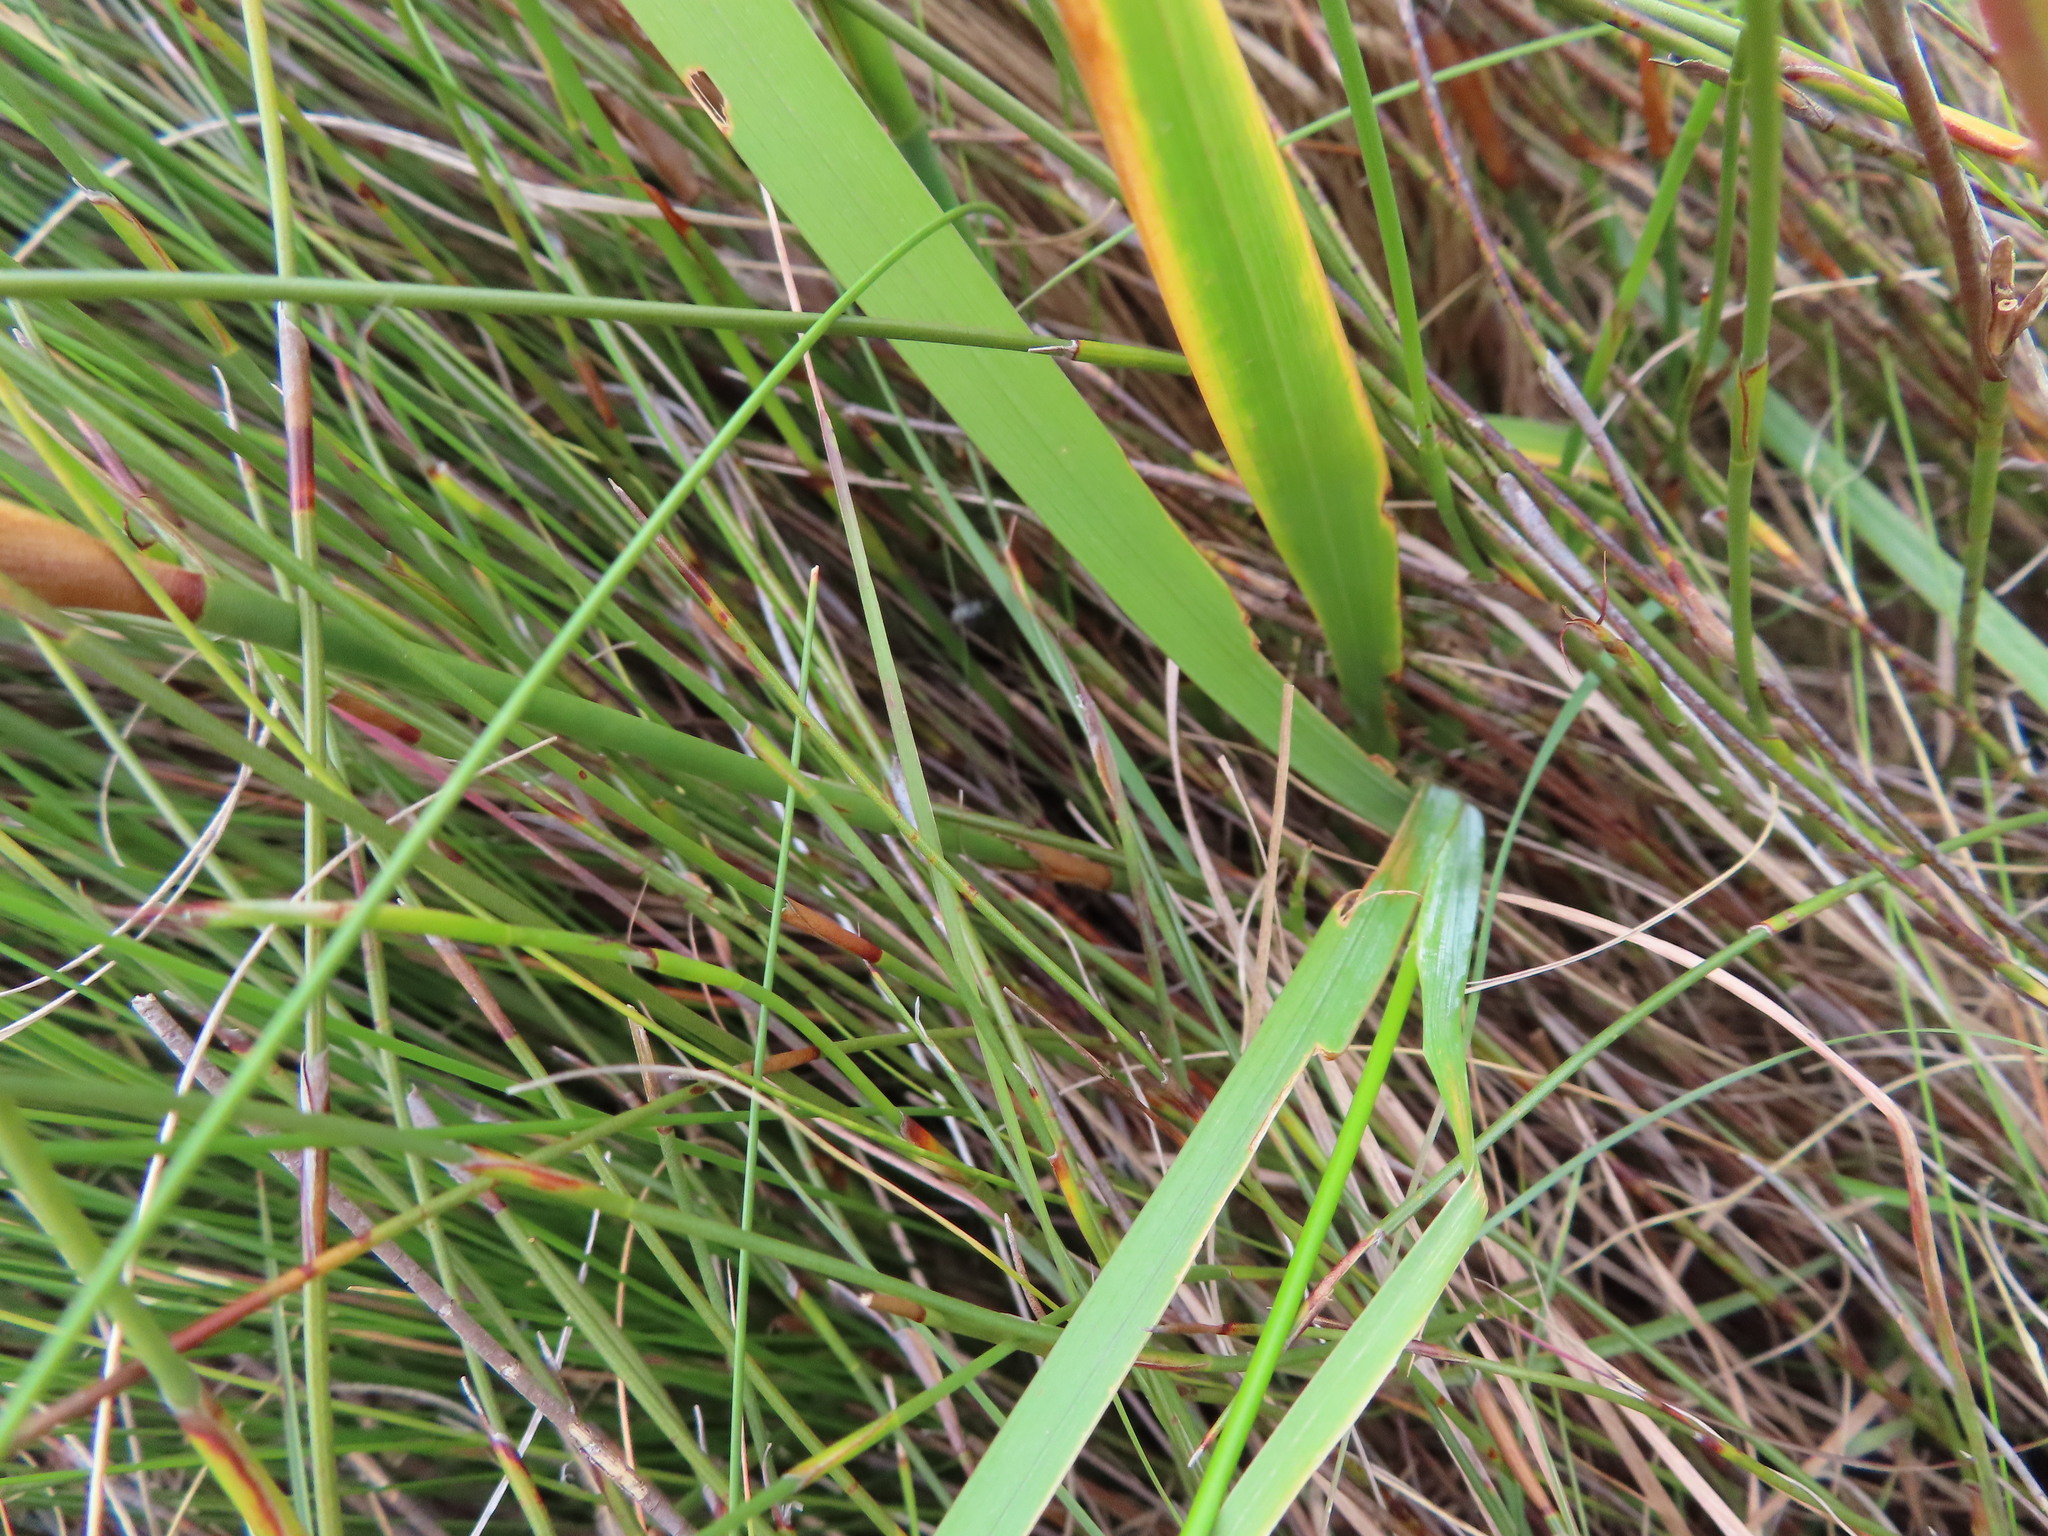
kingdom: Plantae
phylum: Tracheophyta
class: Liliopsida
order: Asparagales
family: Iridaceae
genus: Ixia
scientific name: Ixia dubia
